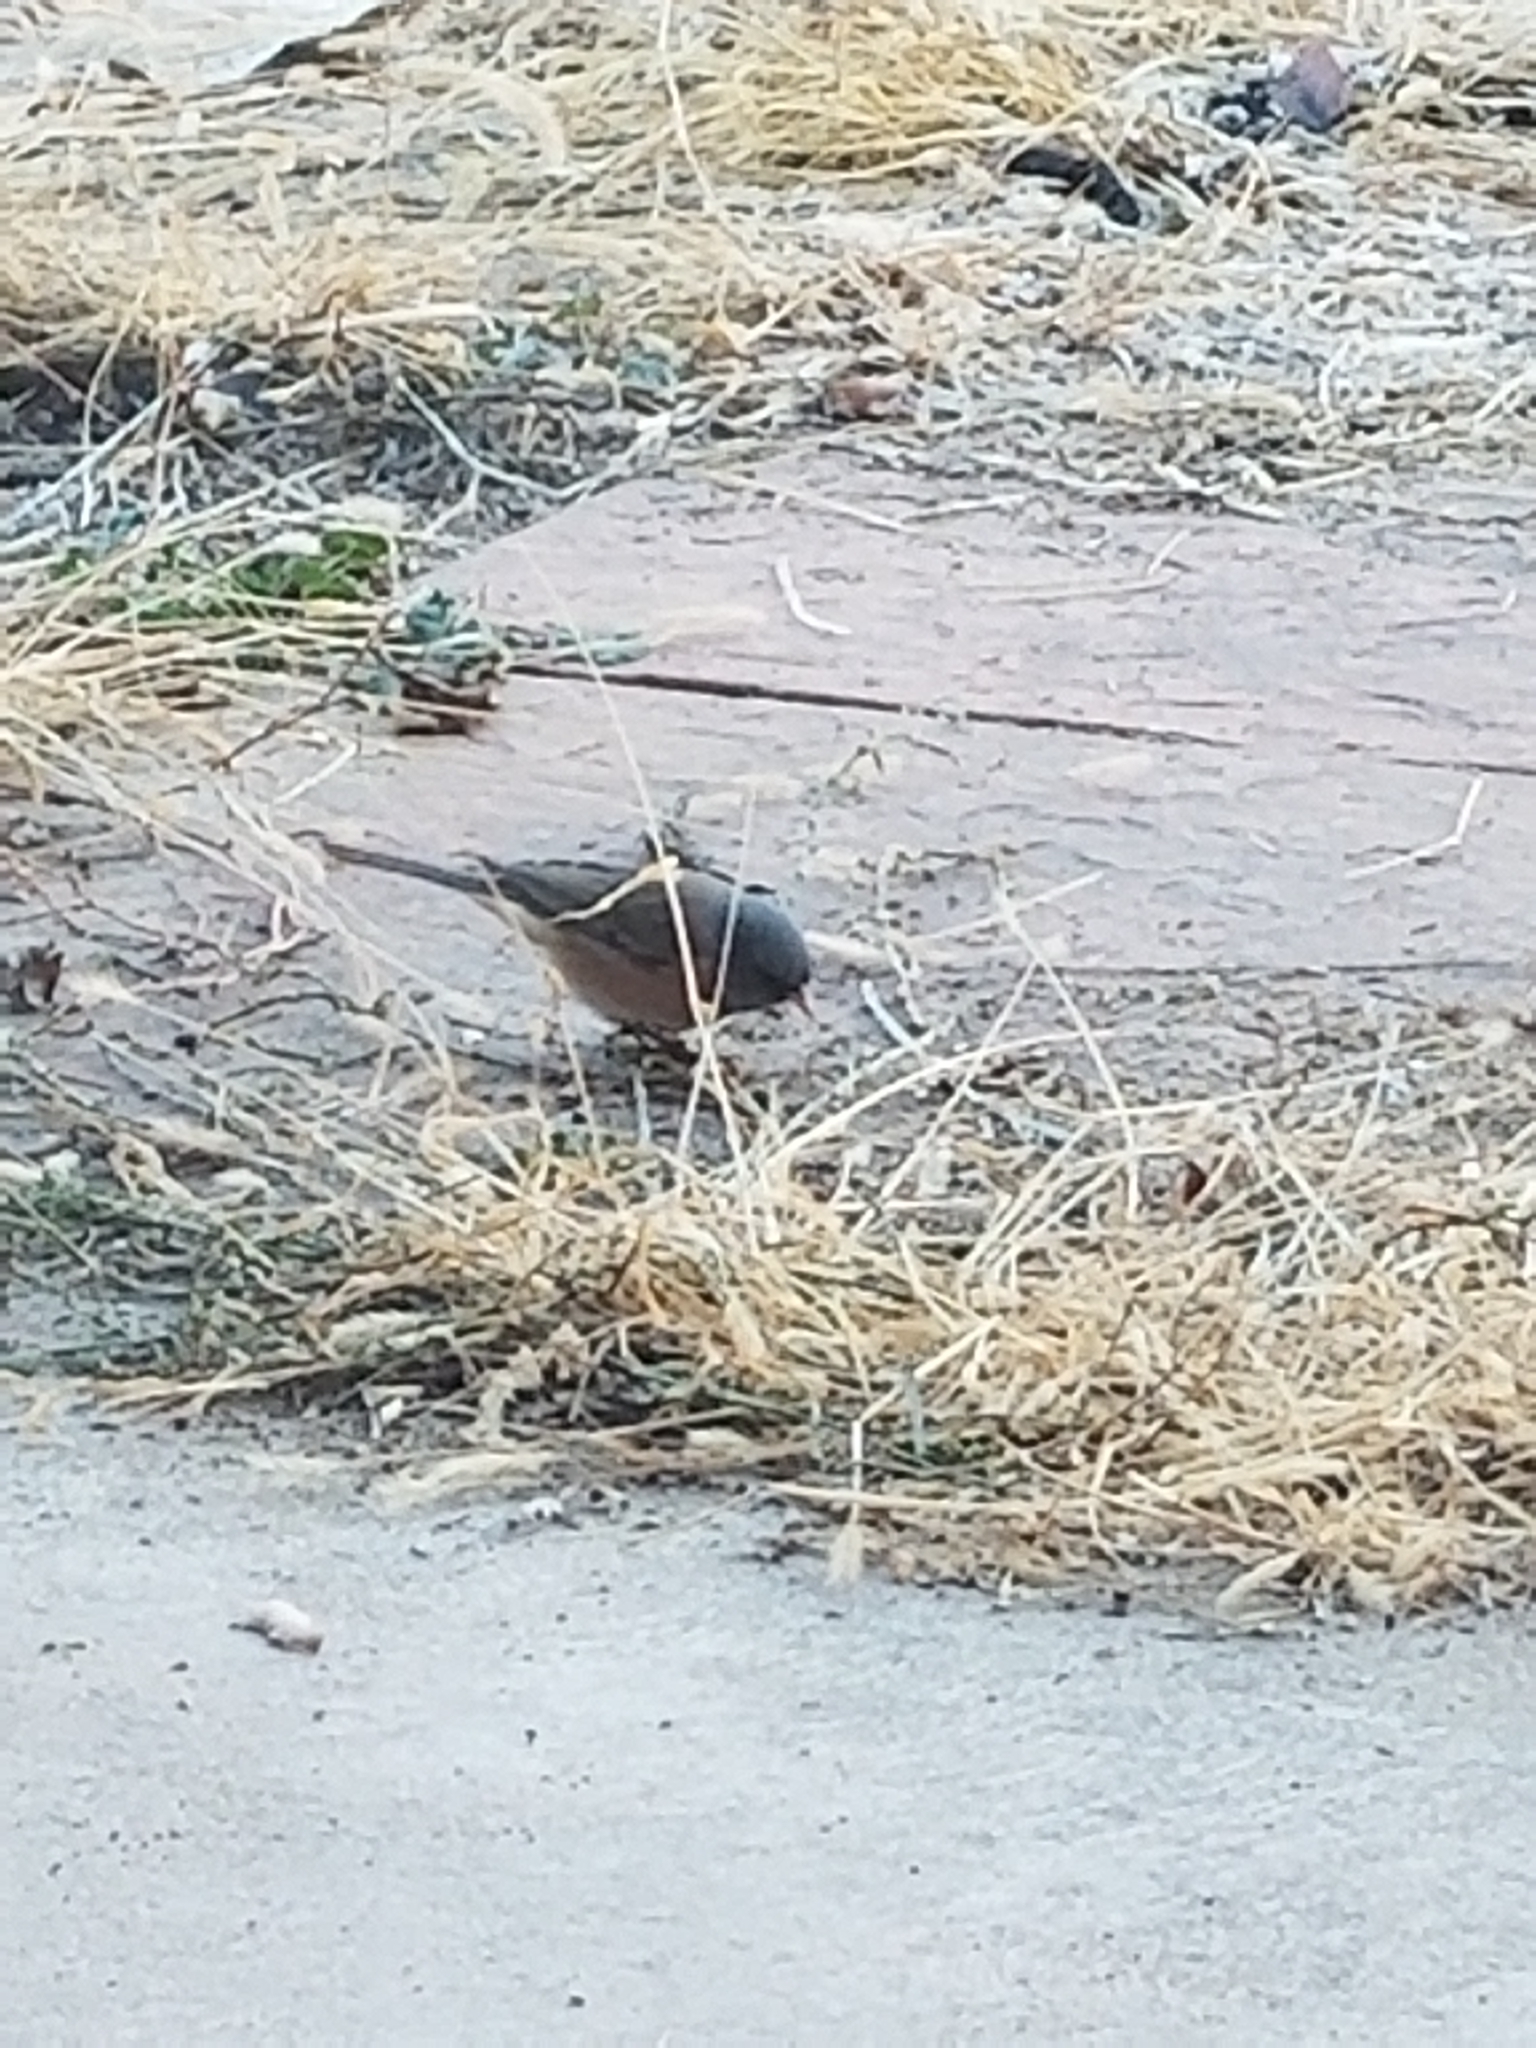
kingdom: Animalia
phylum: Chordata
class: Aves
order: Passeriformes
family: Passerellidae
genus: Junco
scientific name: Junco hyemalis
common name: Dark-eyed junco
